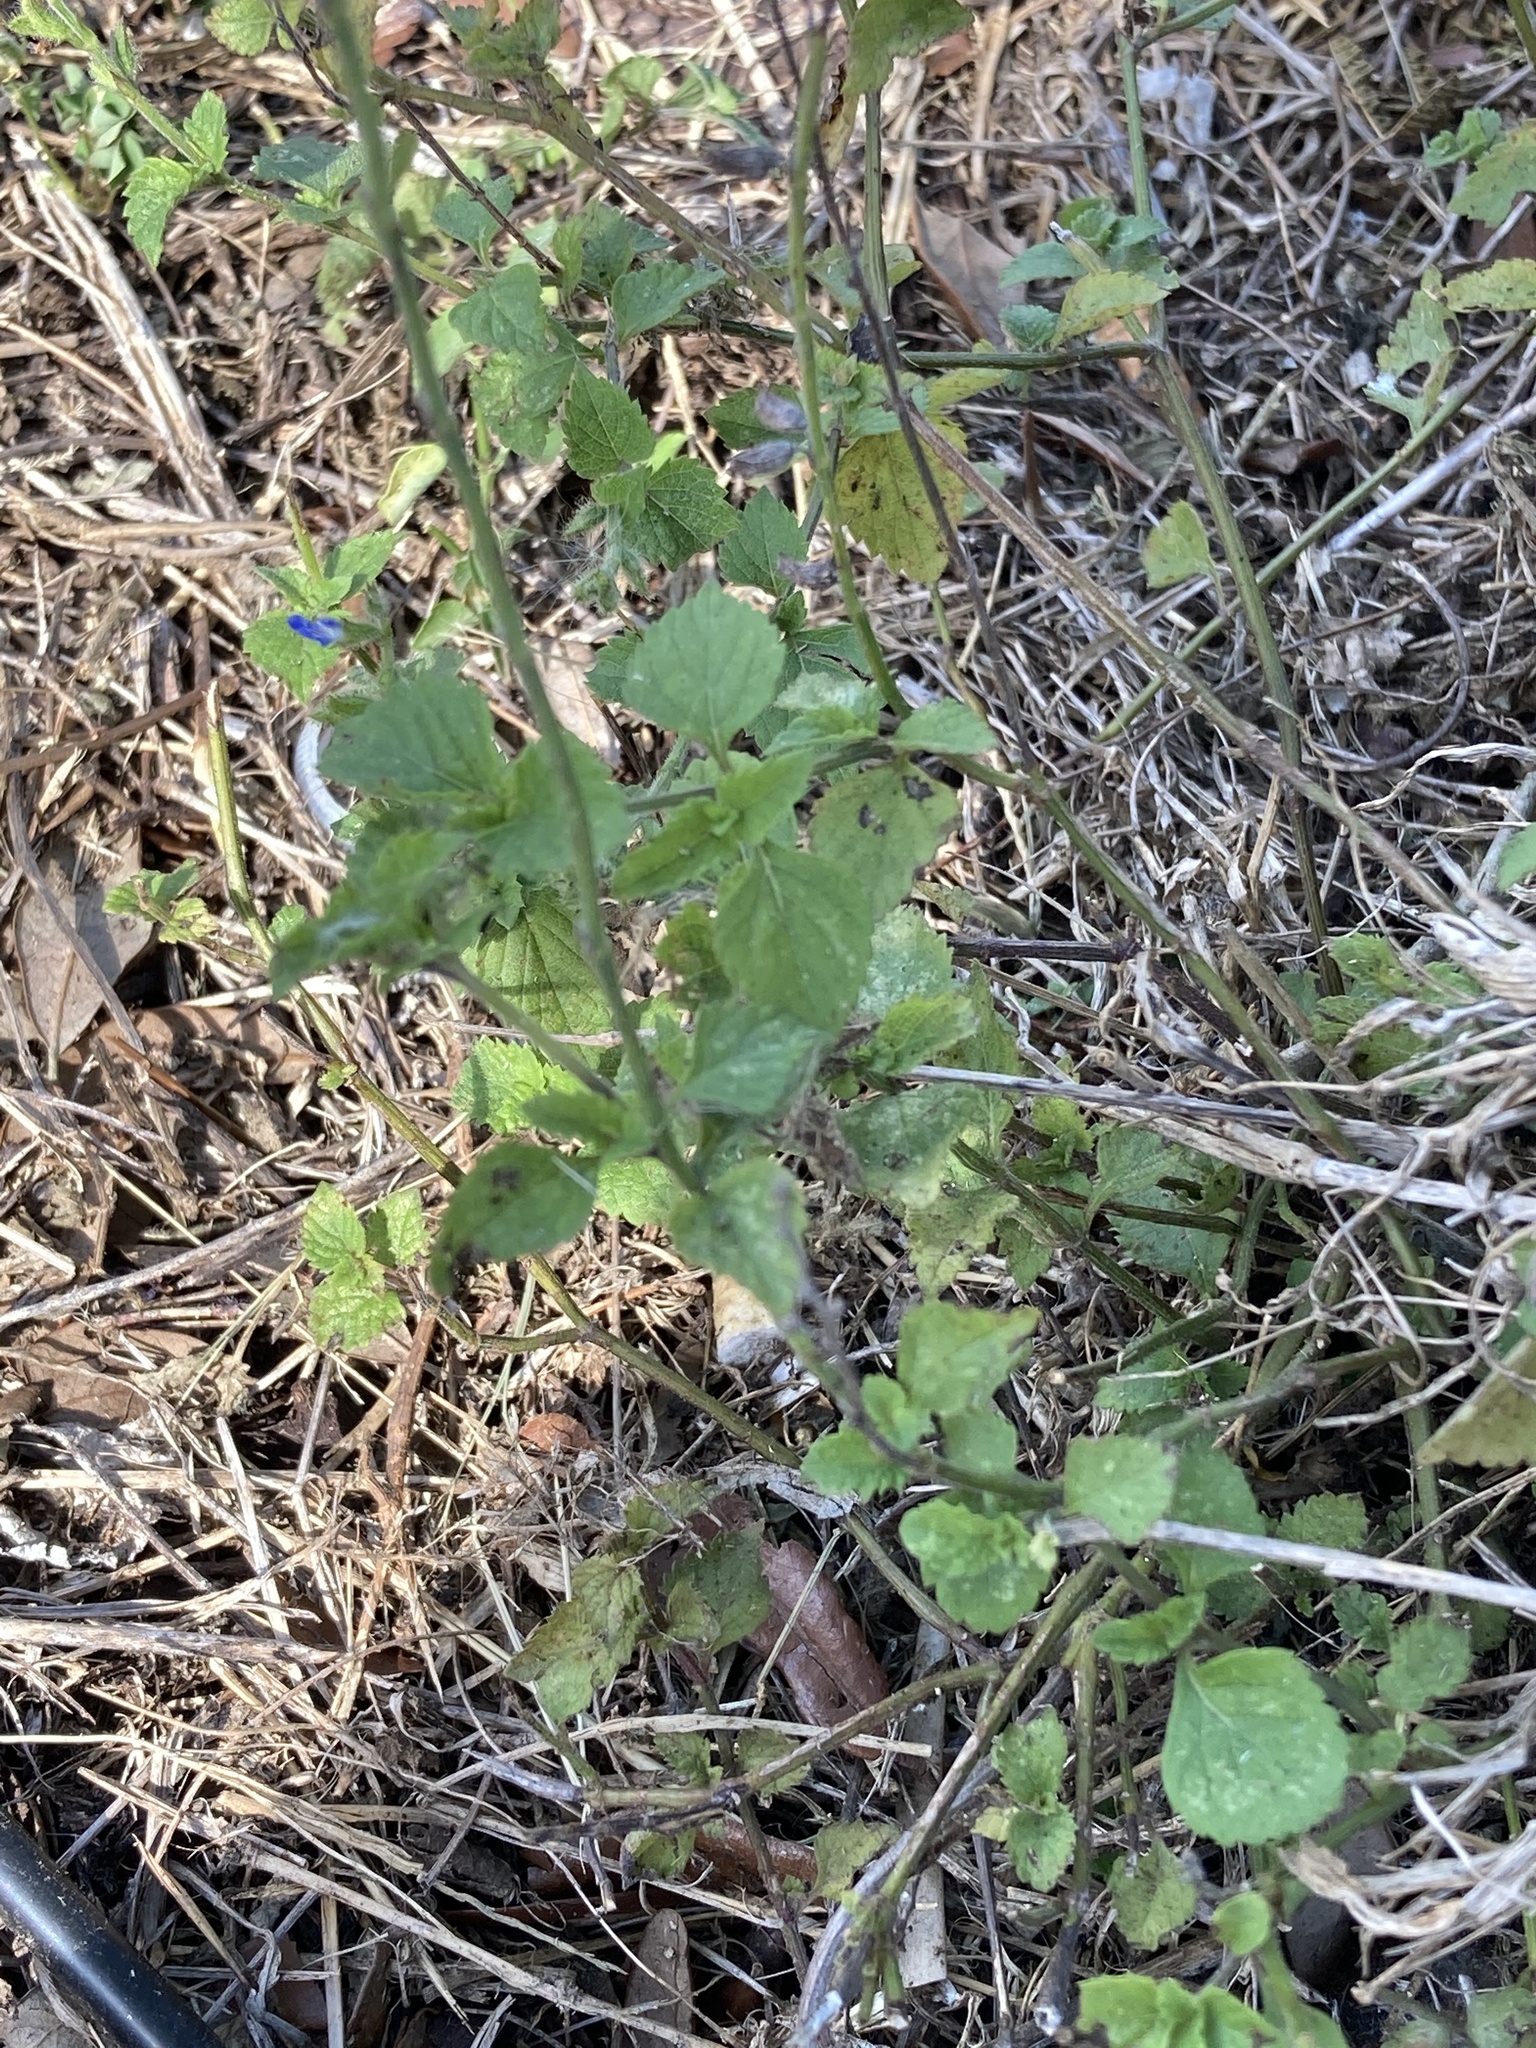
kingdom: Plantae
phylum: Tracheophyta
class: Magnoliopsida
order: Lamiales
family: Lamiaceae
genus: Salvia
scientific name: Salvia misella
